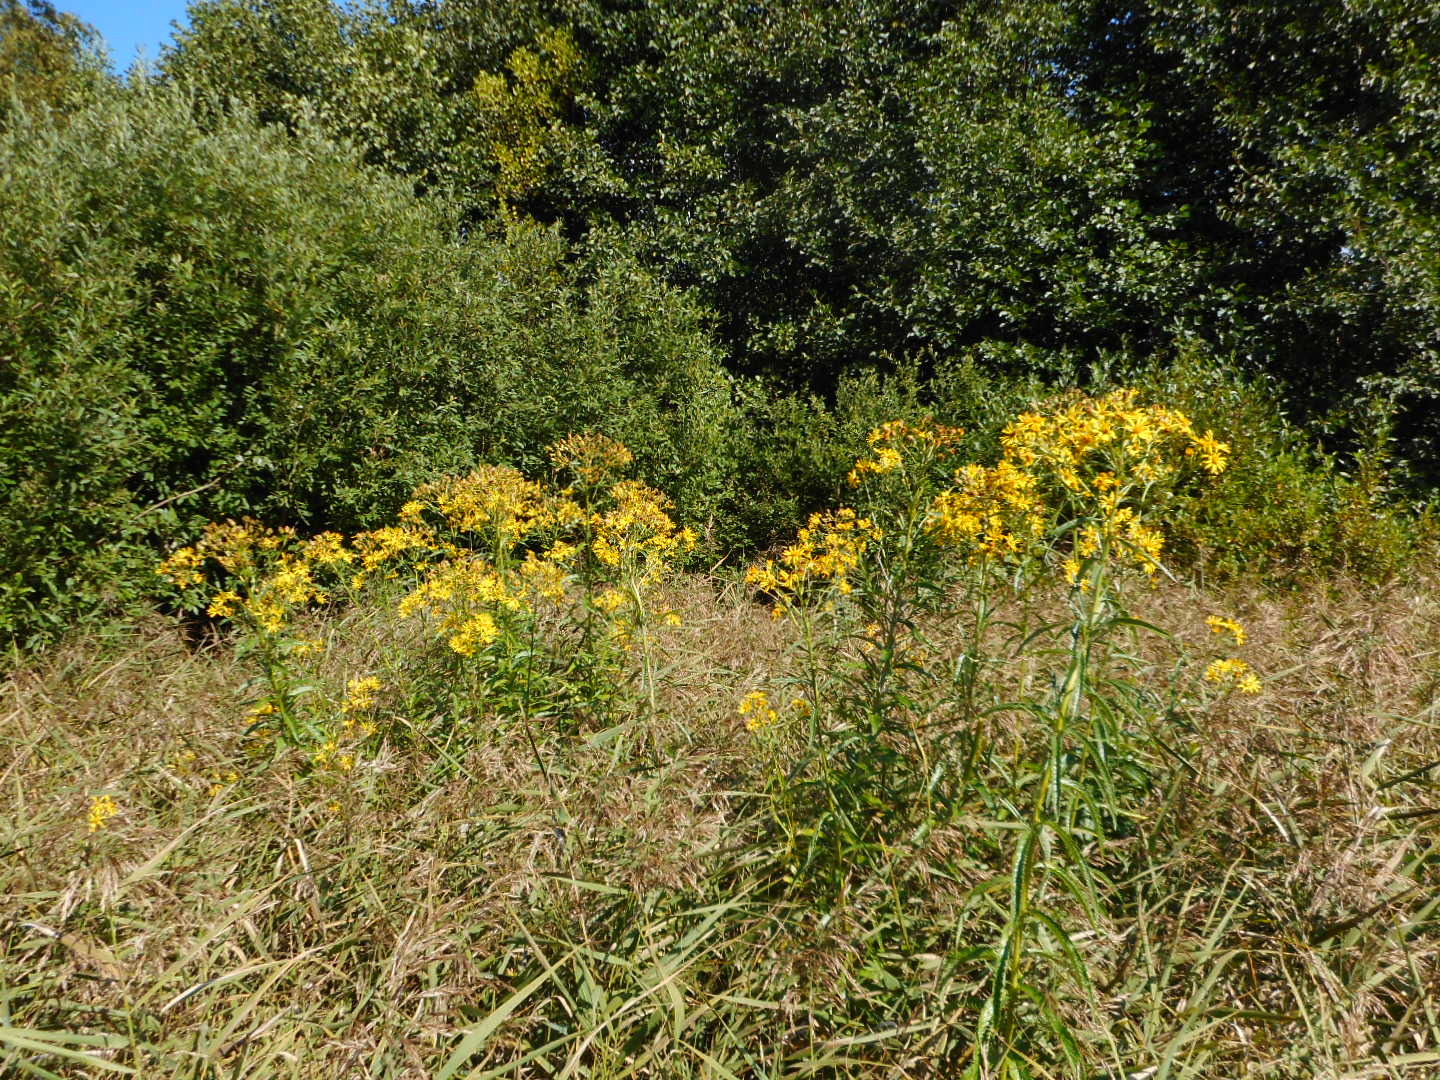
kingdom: Plantae
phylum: Tracheophyta
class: Magnoliopsida
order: Asterales
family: Asteraceae
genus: Jacobaea
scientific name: Jacobaea paludosa
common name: Fen ragwort
